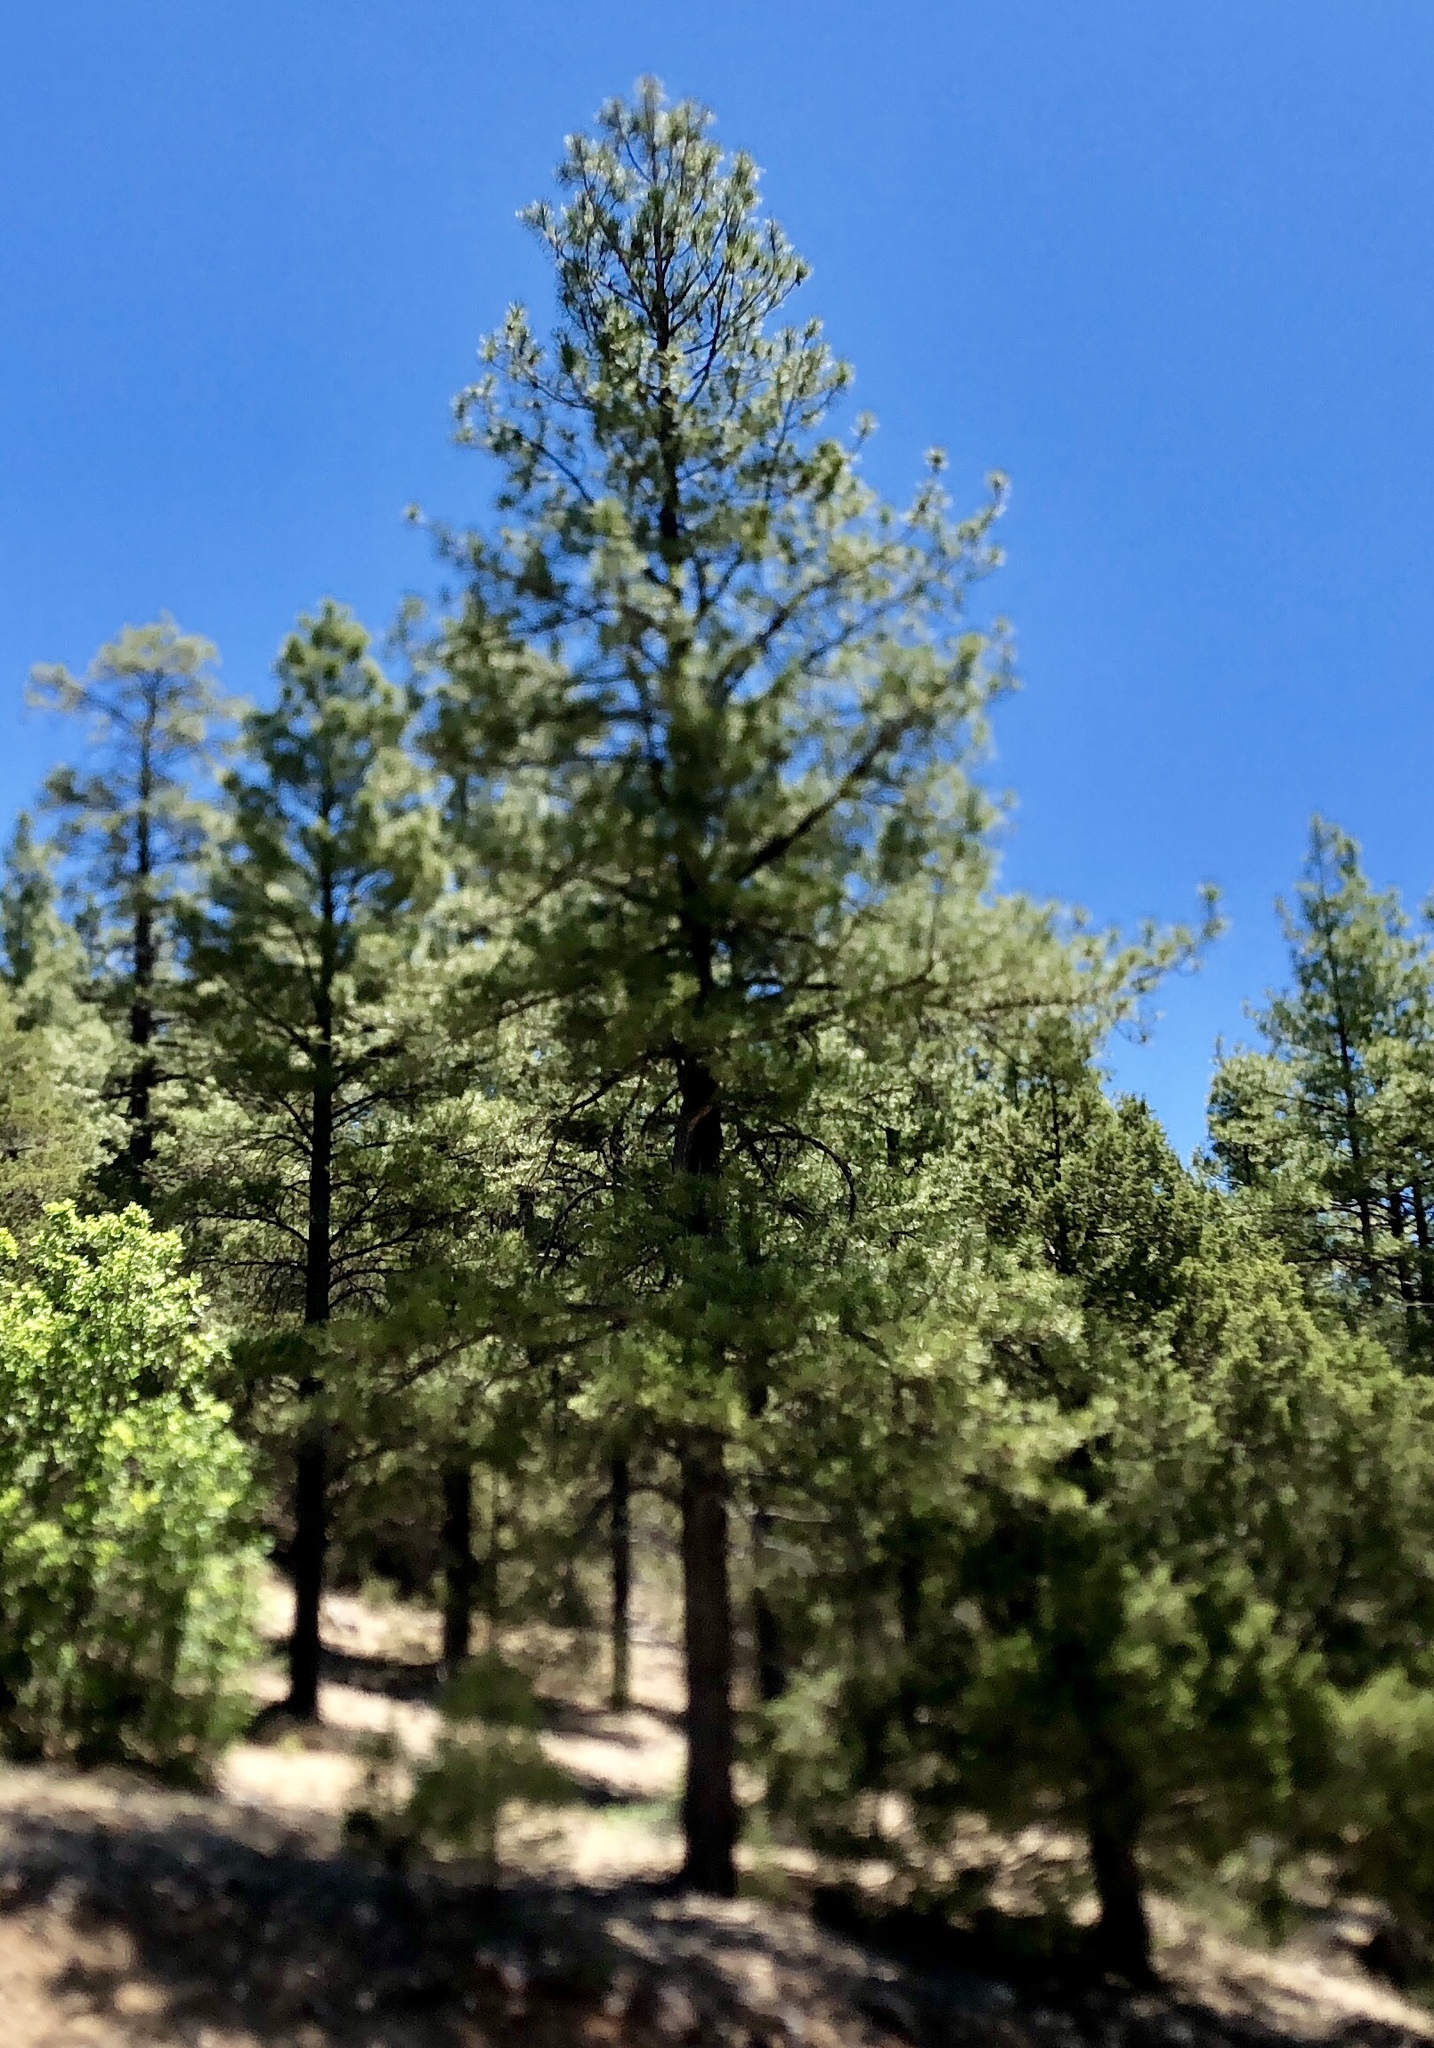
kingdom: Plantae
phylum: Tracheophyta
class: Pinopsida
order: Pinales
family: Pinaceae
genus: Pinus
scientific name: Pinus ponderosa
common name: Western yellow-pine
